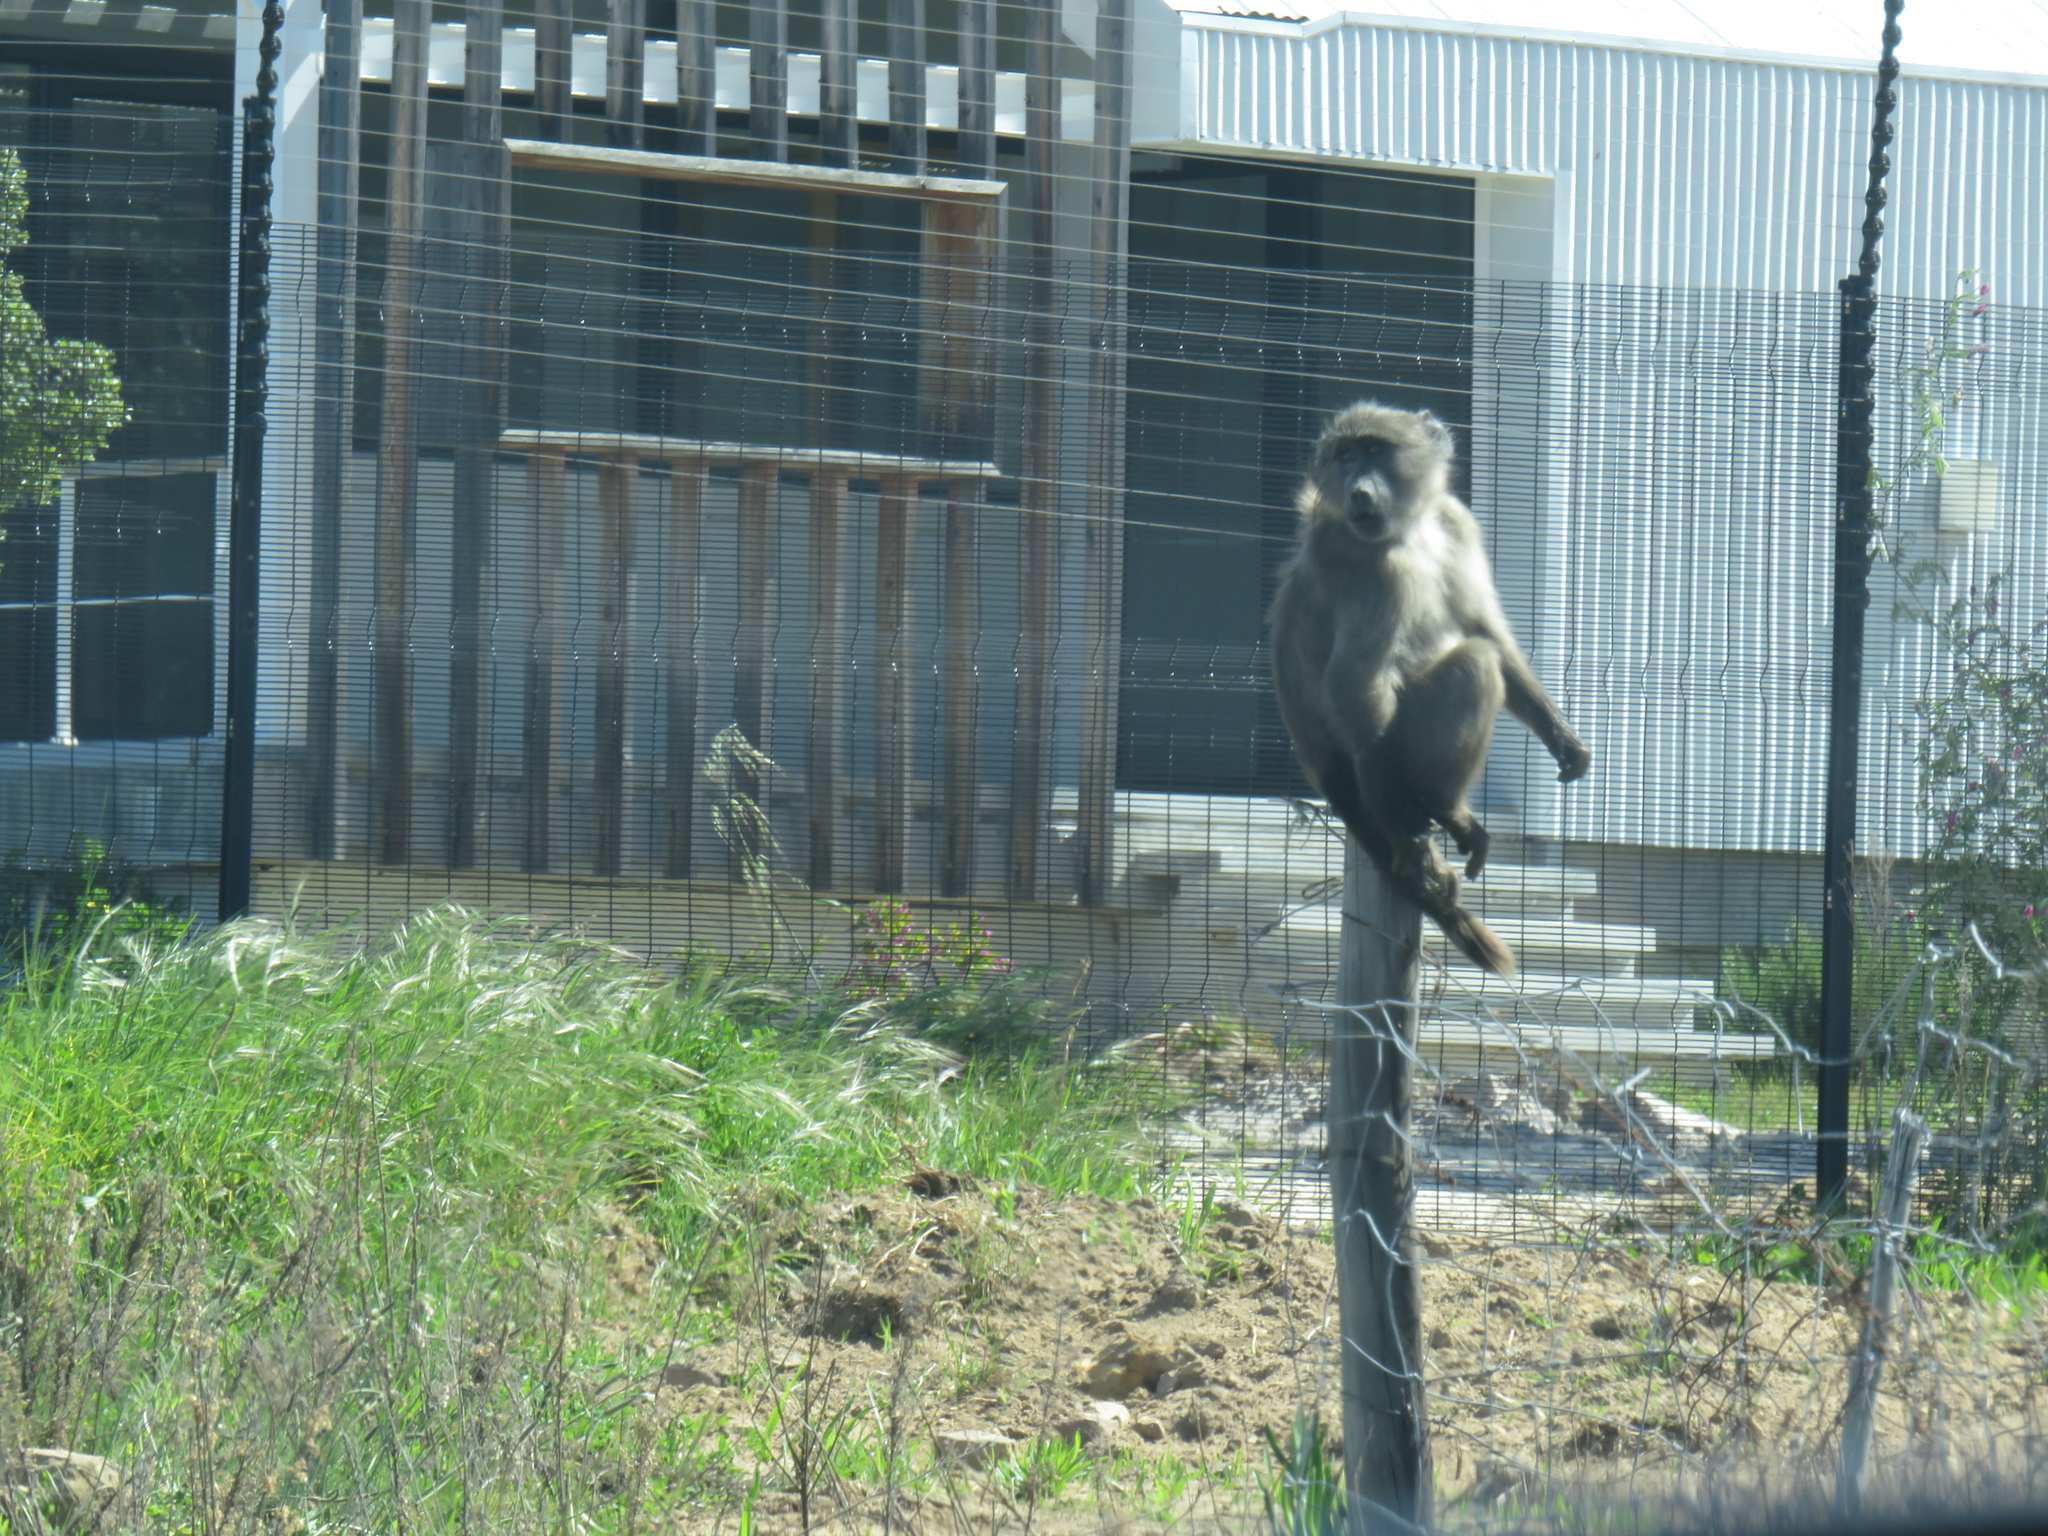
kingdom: Animalia
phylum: Chordata
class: Mammalia
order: Primates
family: Cercopithecidae
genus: Papio
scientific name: Papio ursinus
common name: Chacma baboon
